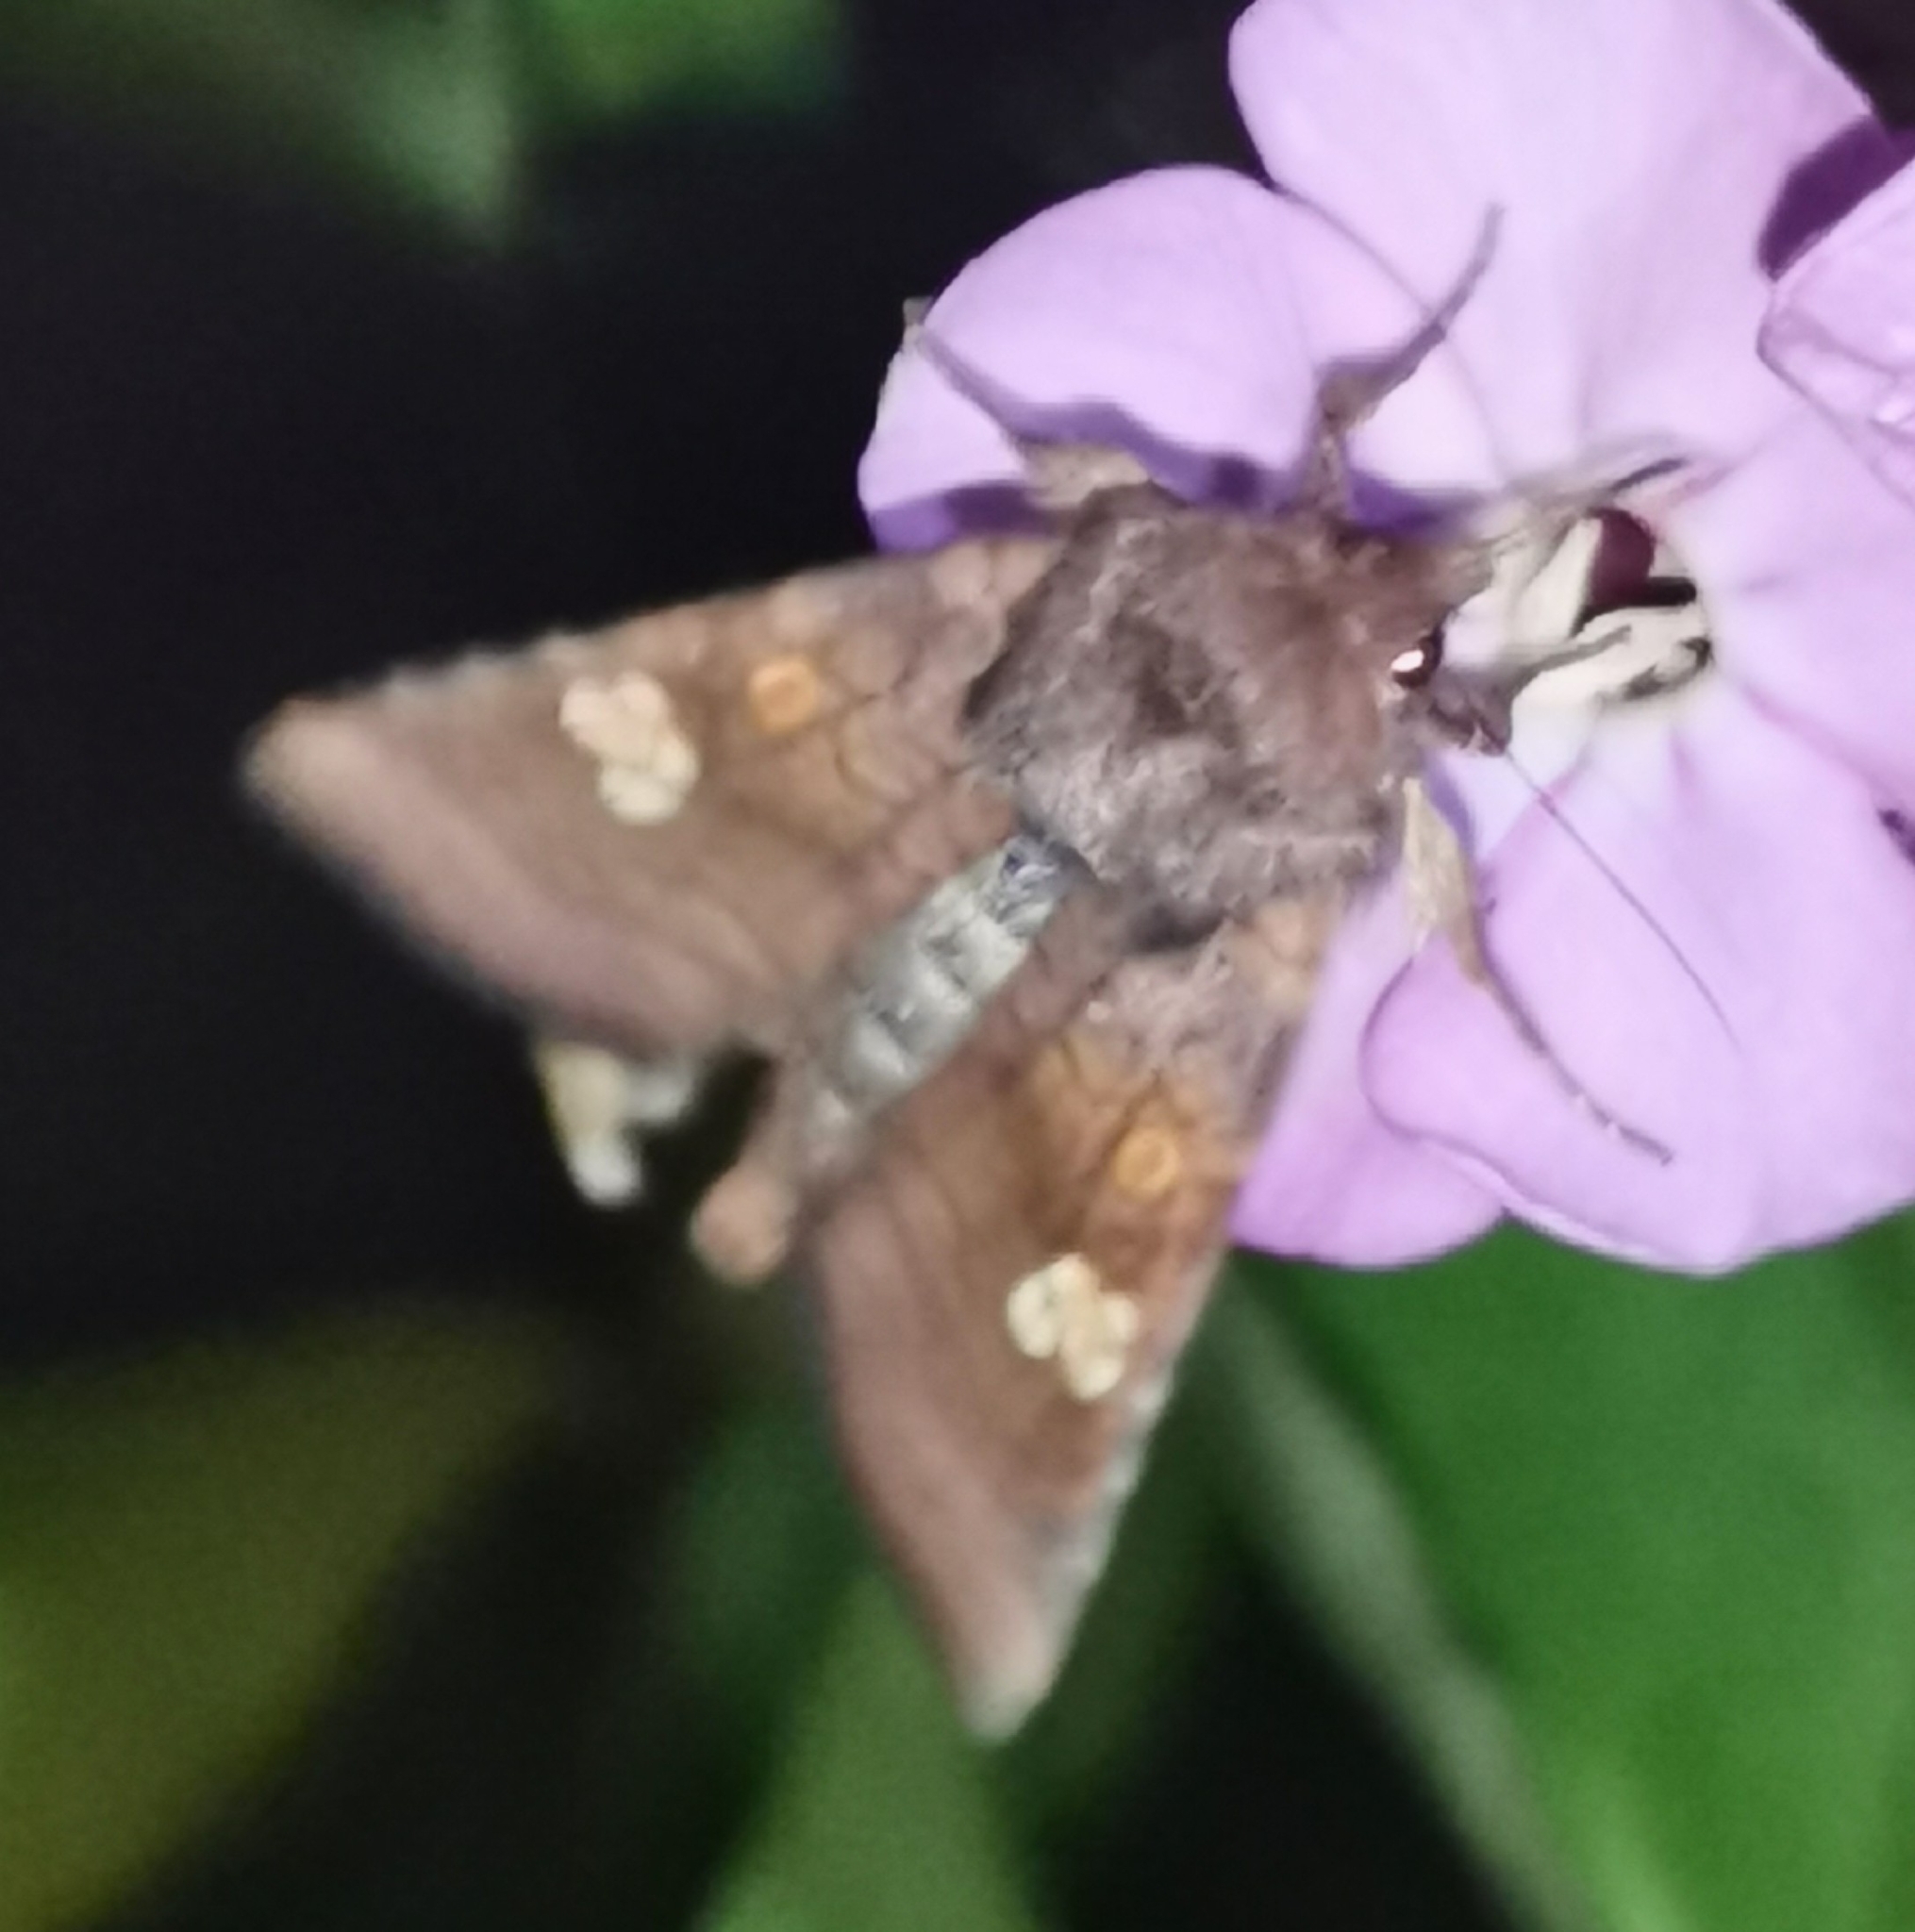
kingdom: Animalia
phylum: Arthropoda
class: Insecta
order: Lepidoptera
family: Noctuidae
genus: Amphipoea
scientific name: Amphipoea oculea
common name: Ear moth
